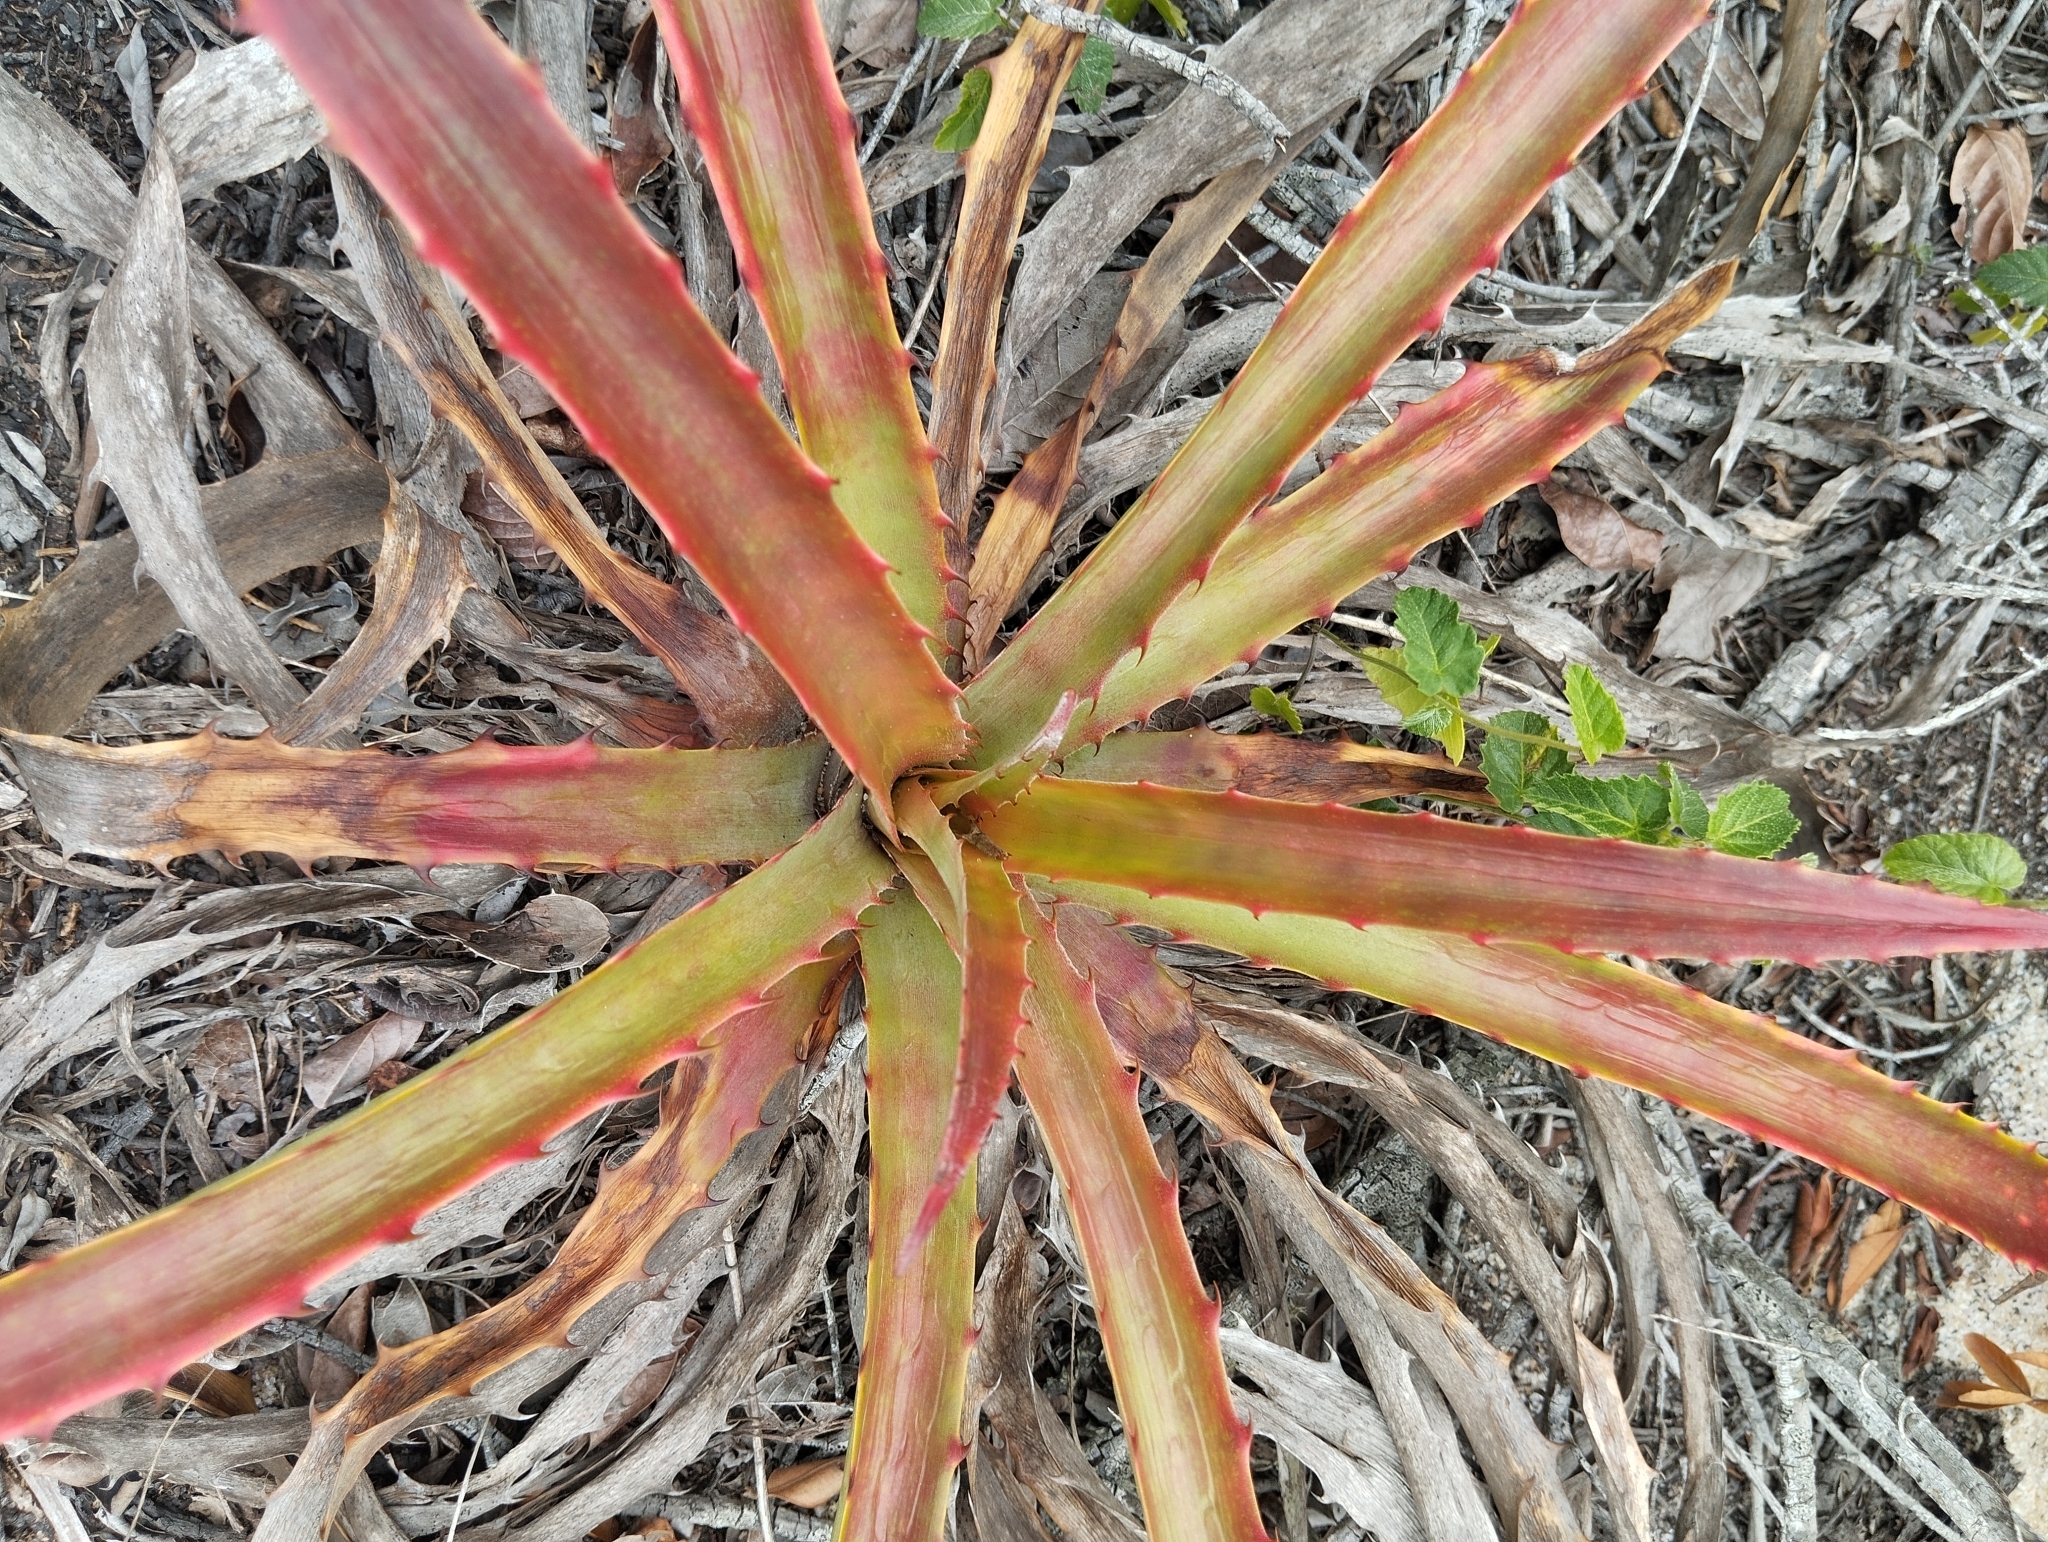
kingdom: Plantae
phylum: Tracheophyta
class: Liliopsida
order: Poales
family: Bromeliaceae
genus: Bromelia
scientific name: Bromelia antiacantha
